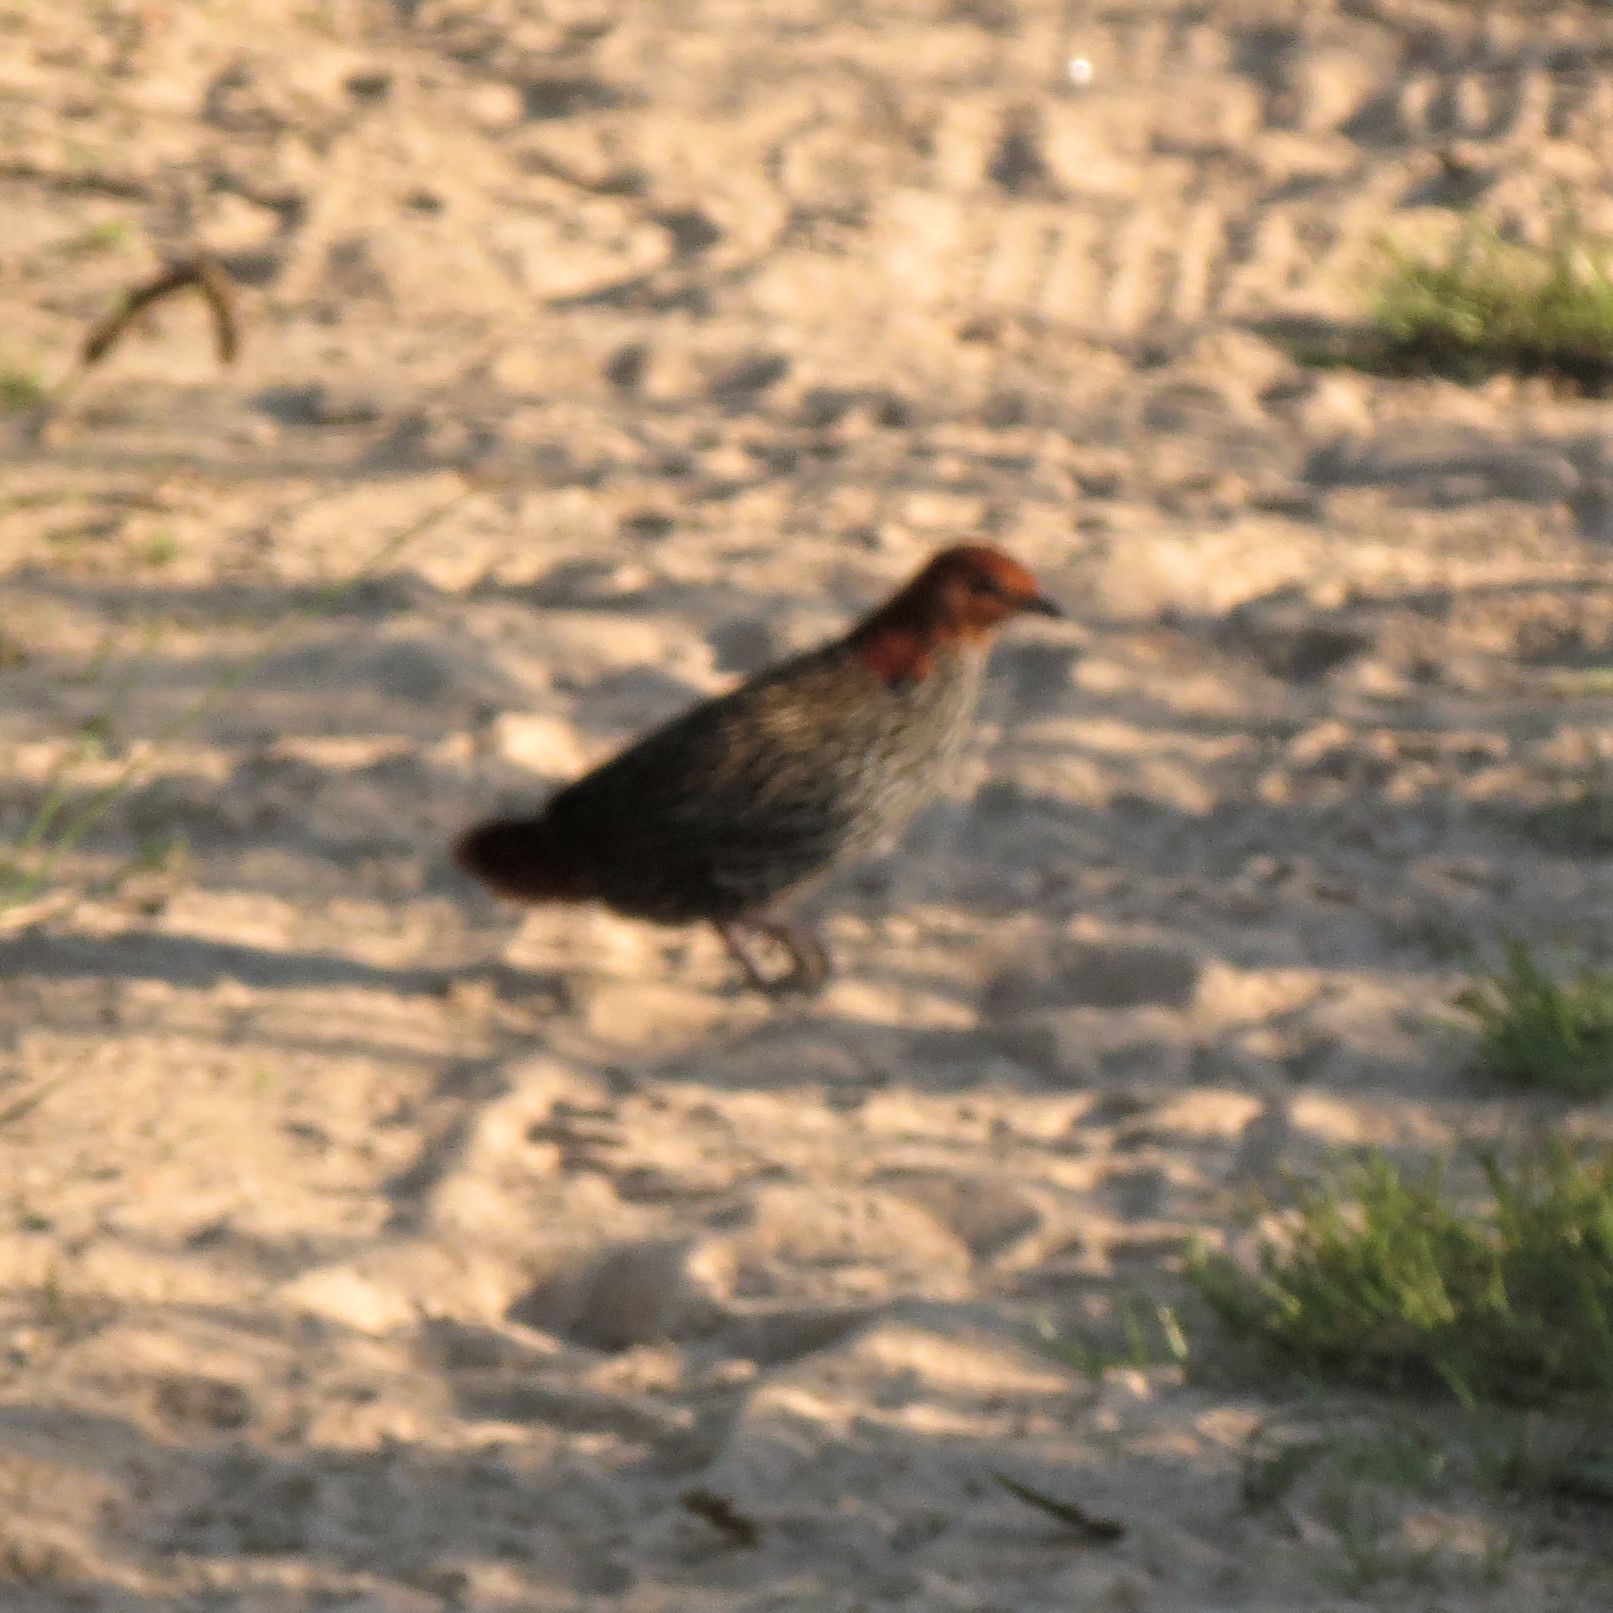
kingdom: Animalia
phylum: Chordata
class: Aves
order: Gruiformes
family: Rallidae
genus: Sarothrura
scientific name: Sarothrura affinis
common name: Striped flufftail
